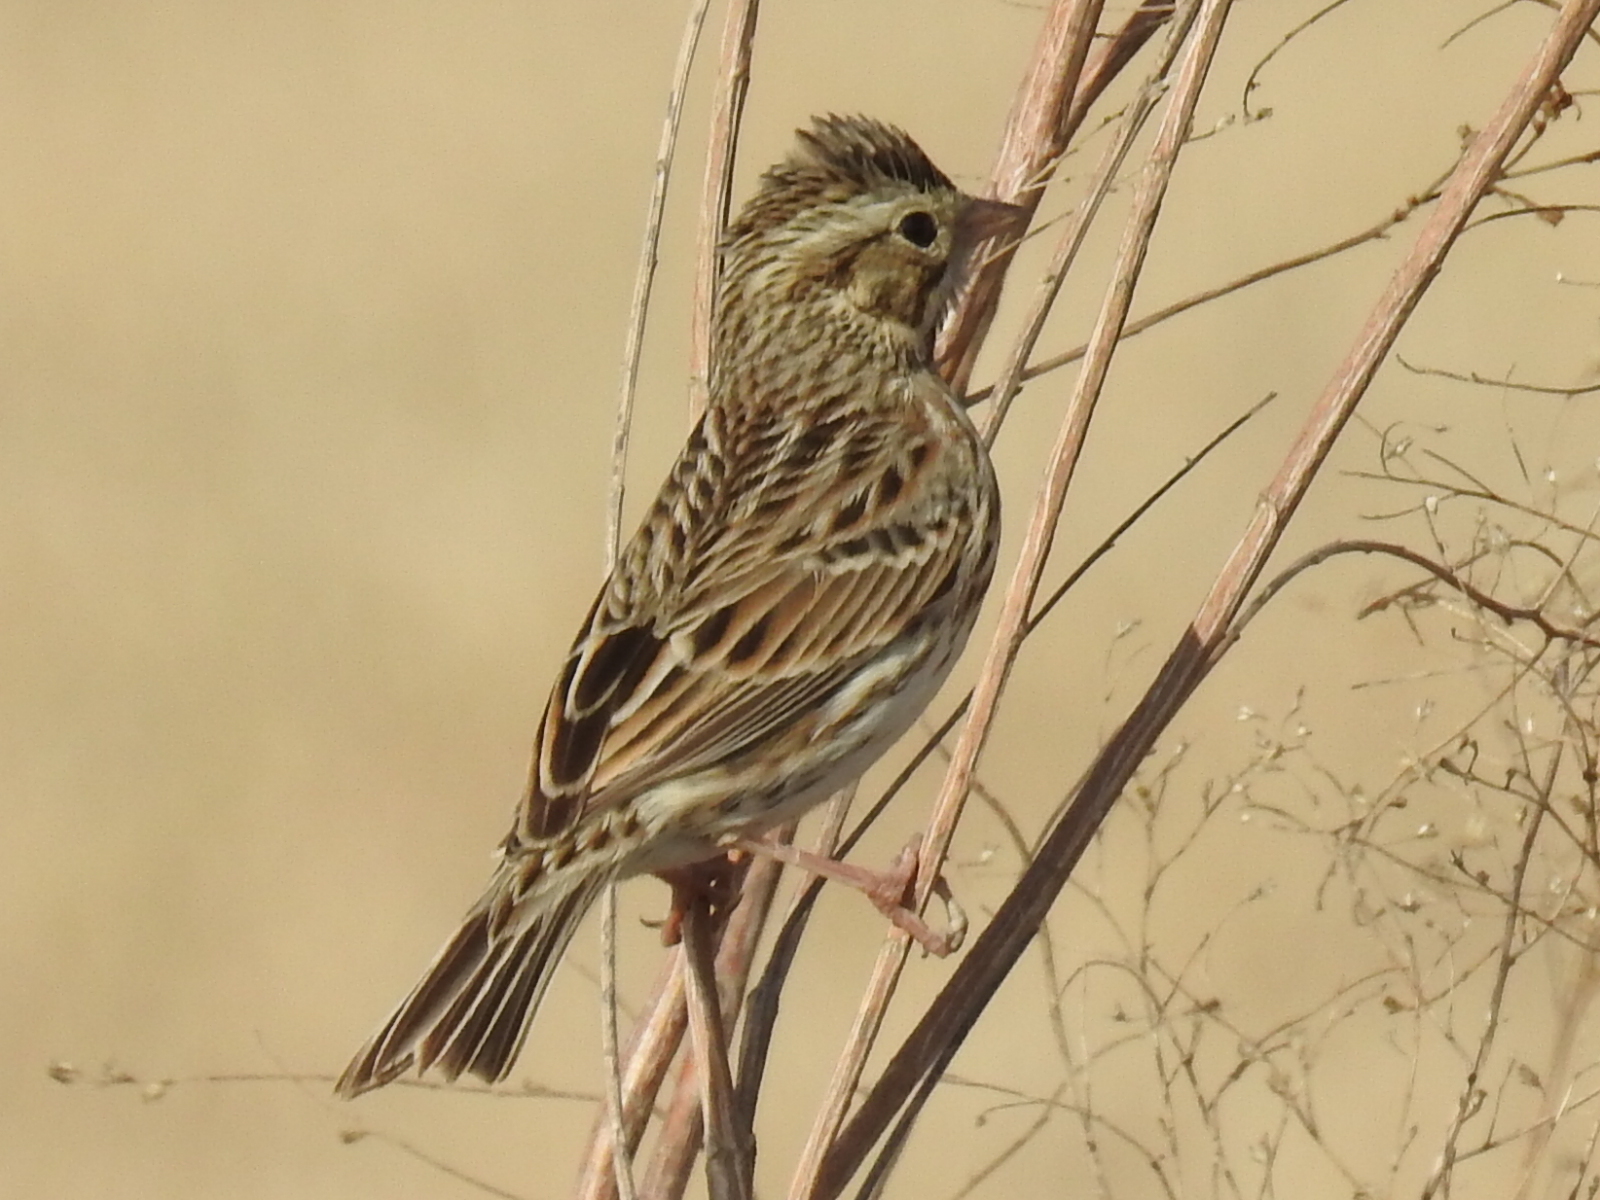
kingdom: Animalia
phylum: Chordata
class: Aves
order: Passeriformes
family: Passerellidae
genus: Passerculus
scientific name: Passerculus sandwichensis
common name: Savannah sparrow
